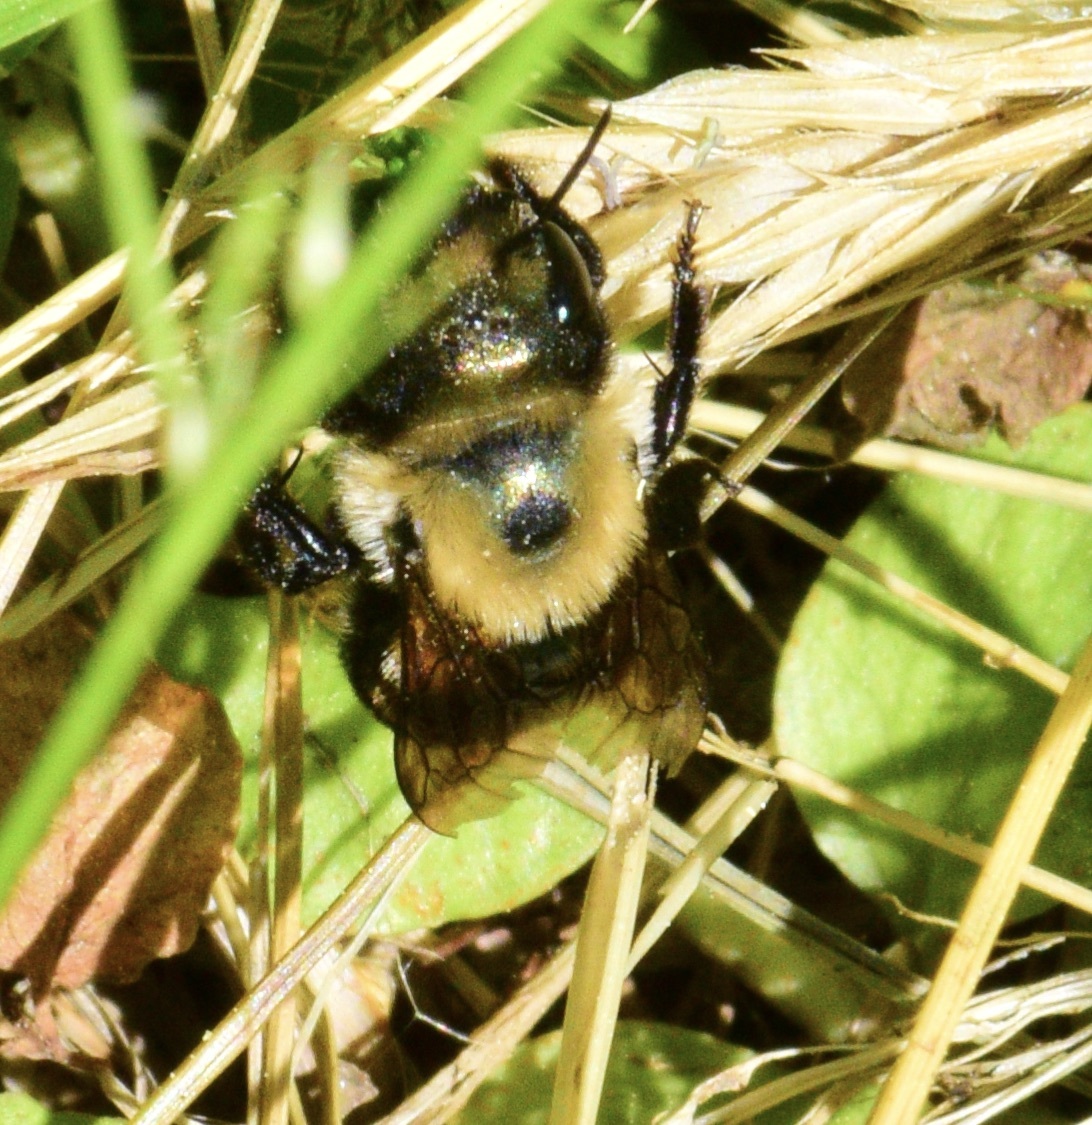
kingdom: Animalia
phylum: Arthropoda
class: Insecta
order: Hymenoptera
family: Megachilidae
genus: Osmia
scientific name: Osmia bucephala
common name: Bufflehead mason bee
